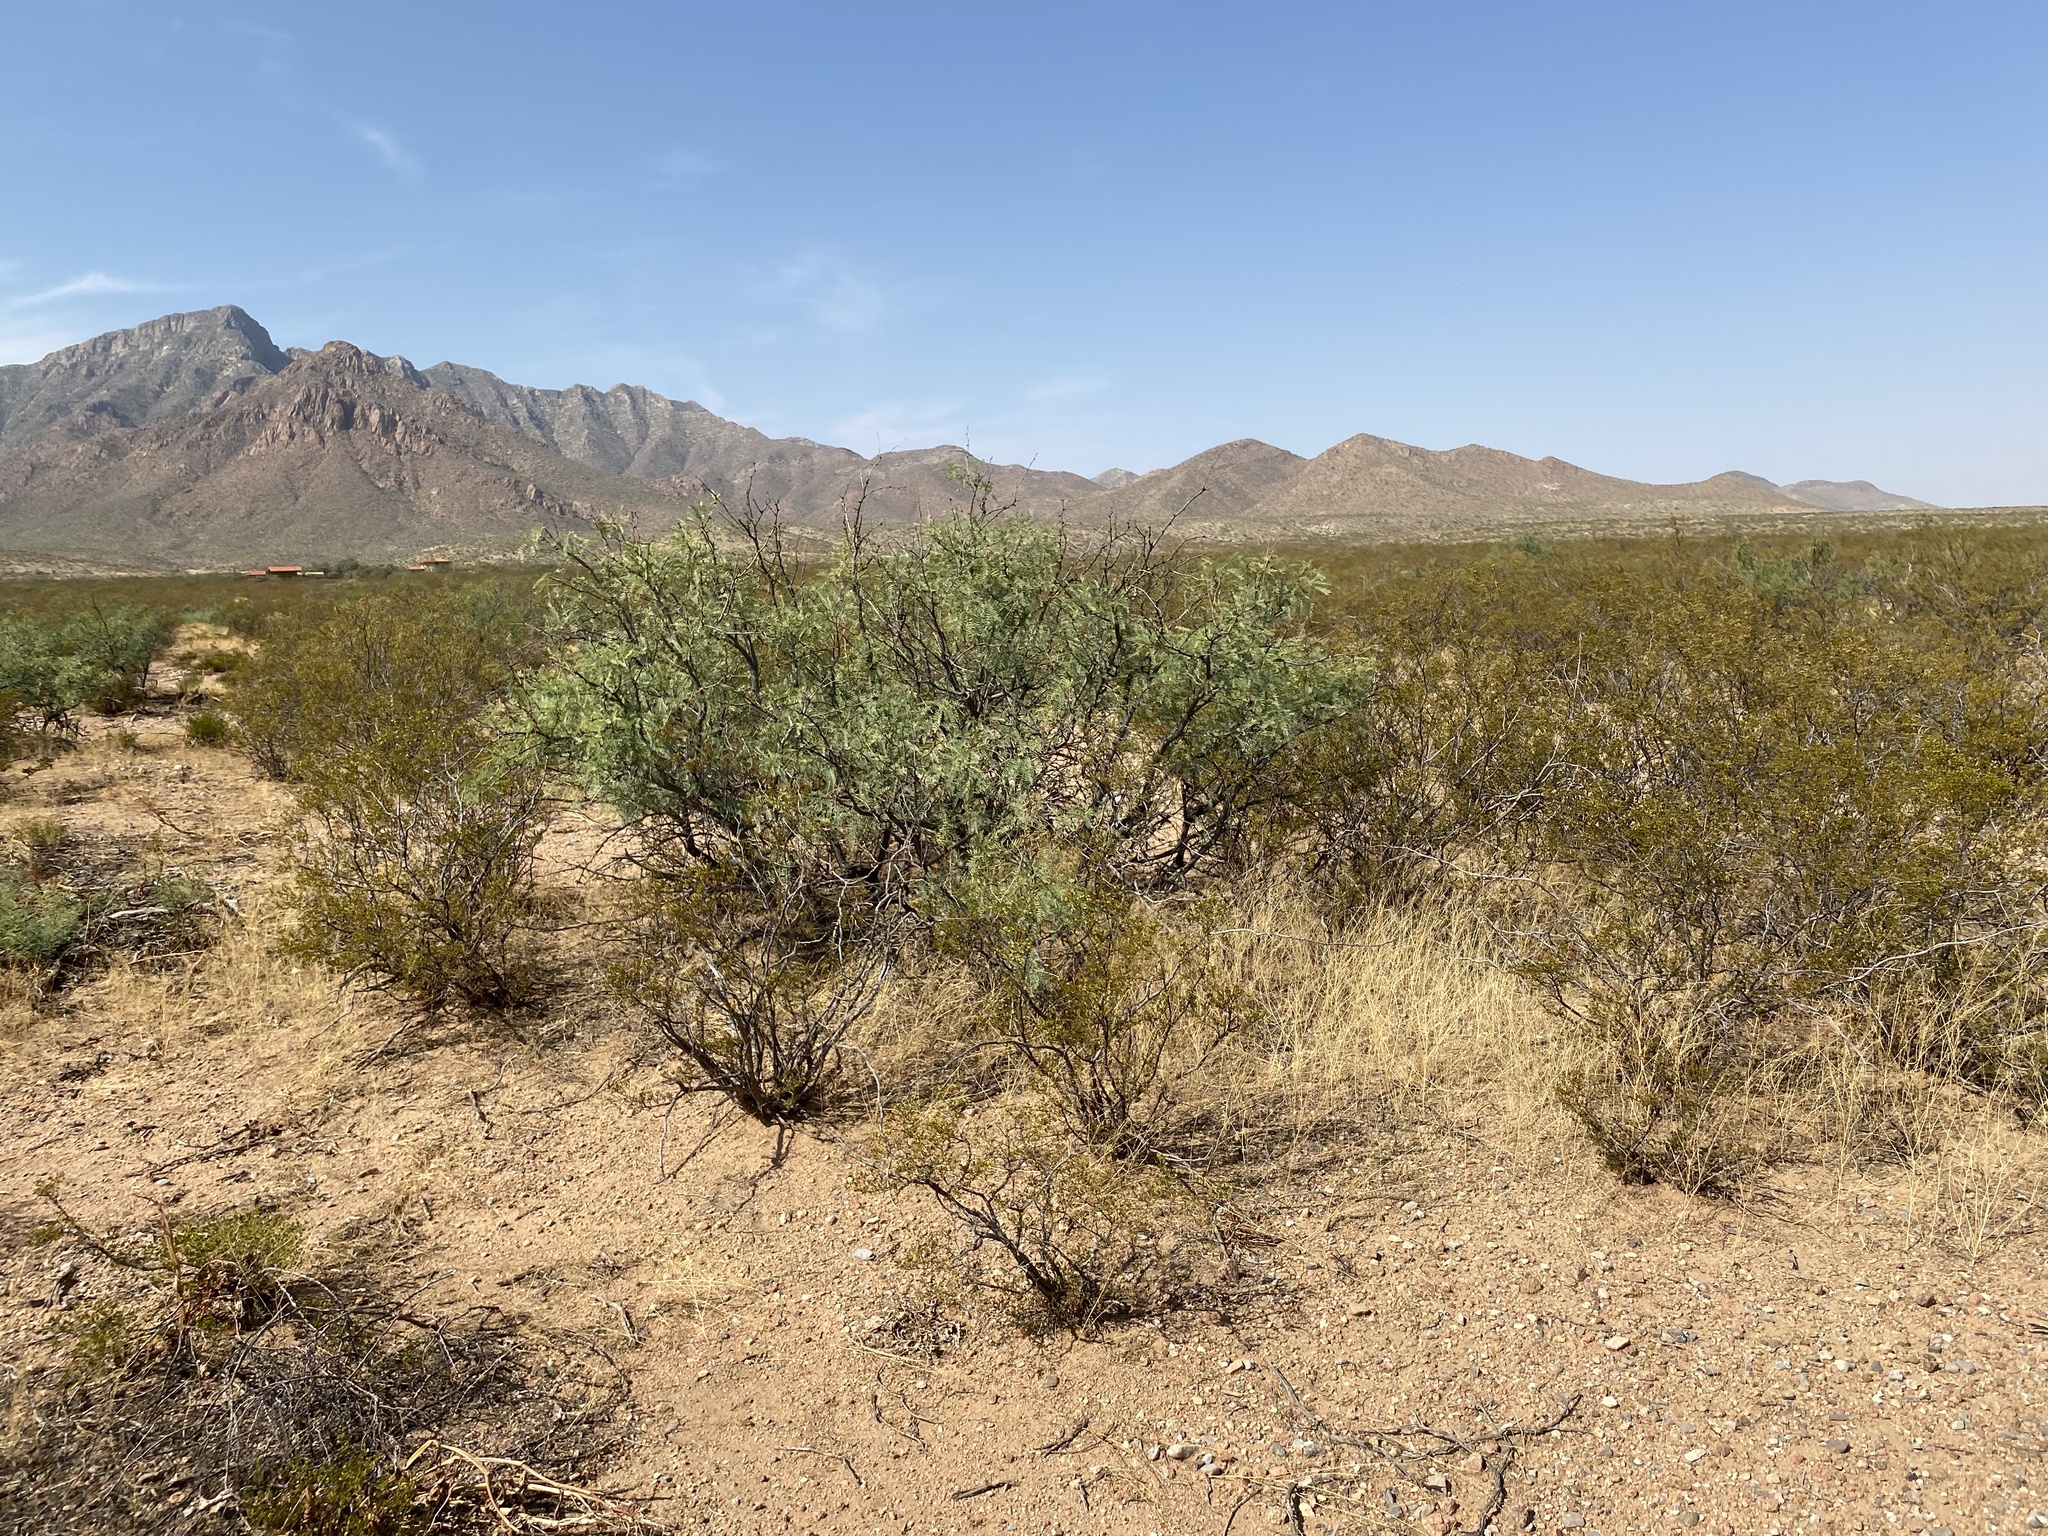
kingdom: Plantae
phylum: Tracheophyta
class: Magnoliopsida
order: Fabales
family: Fabaceae
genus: Prosopis
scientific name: Prosopis glandulosa
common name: Honey mesquite
